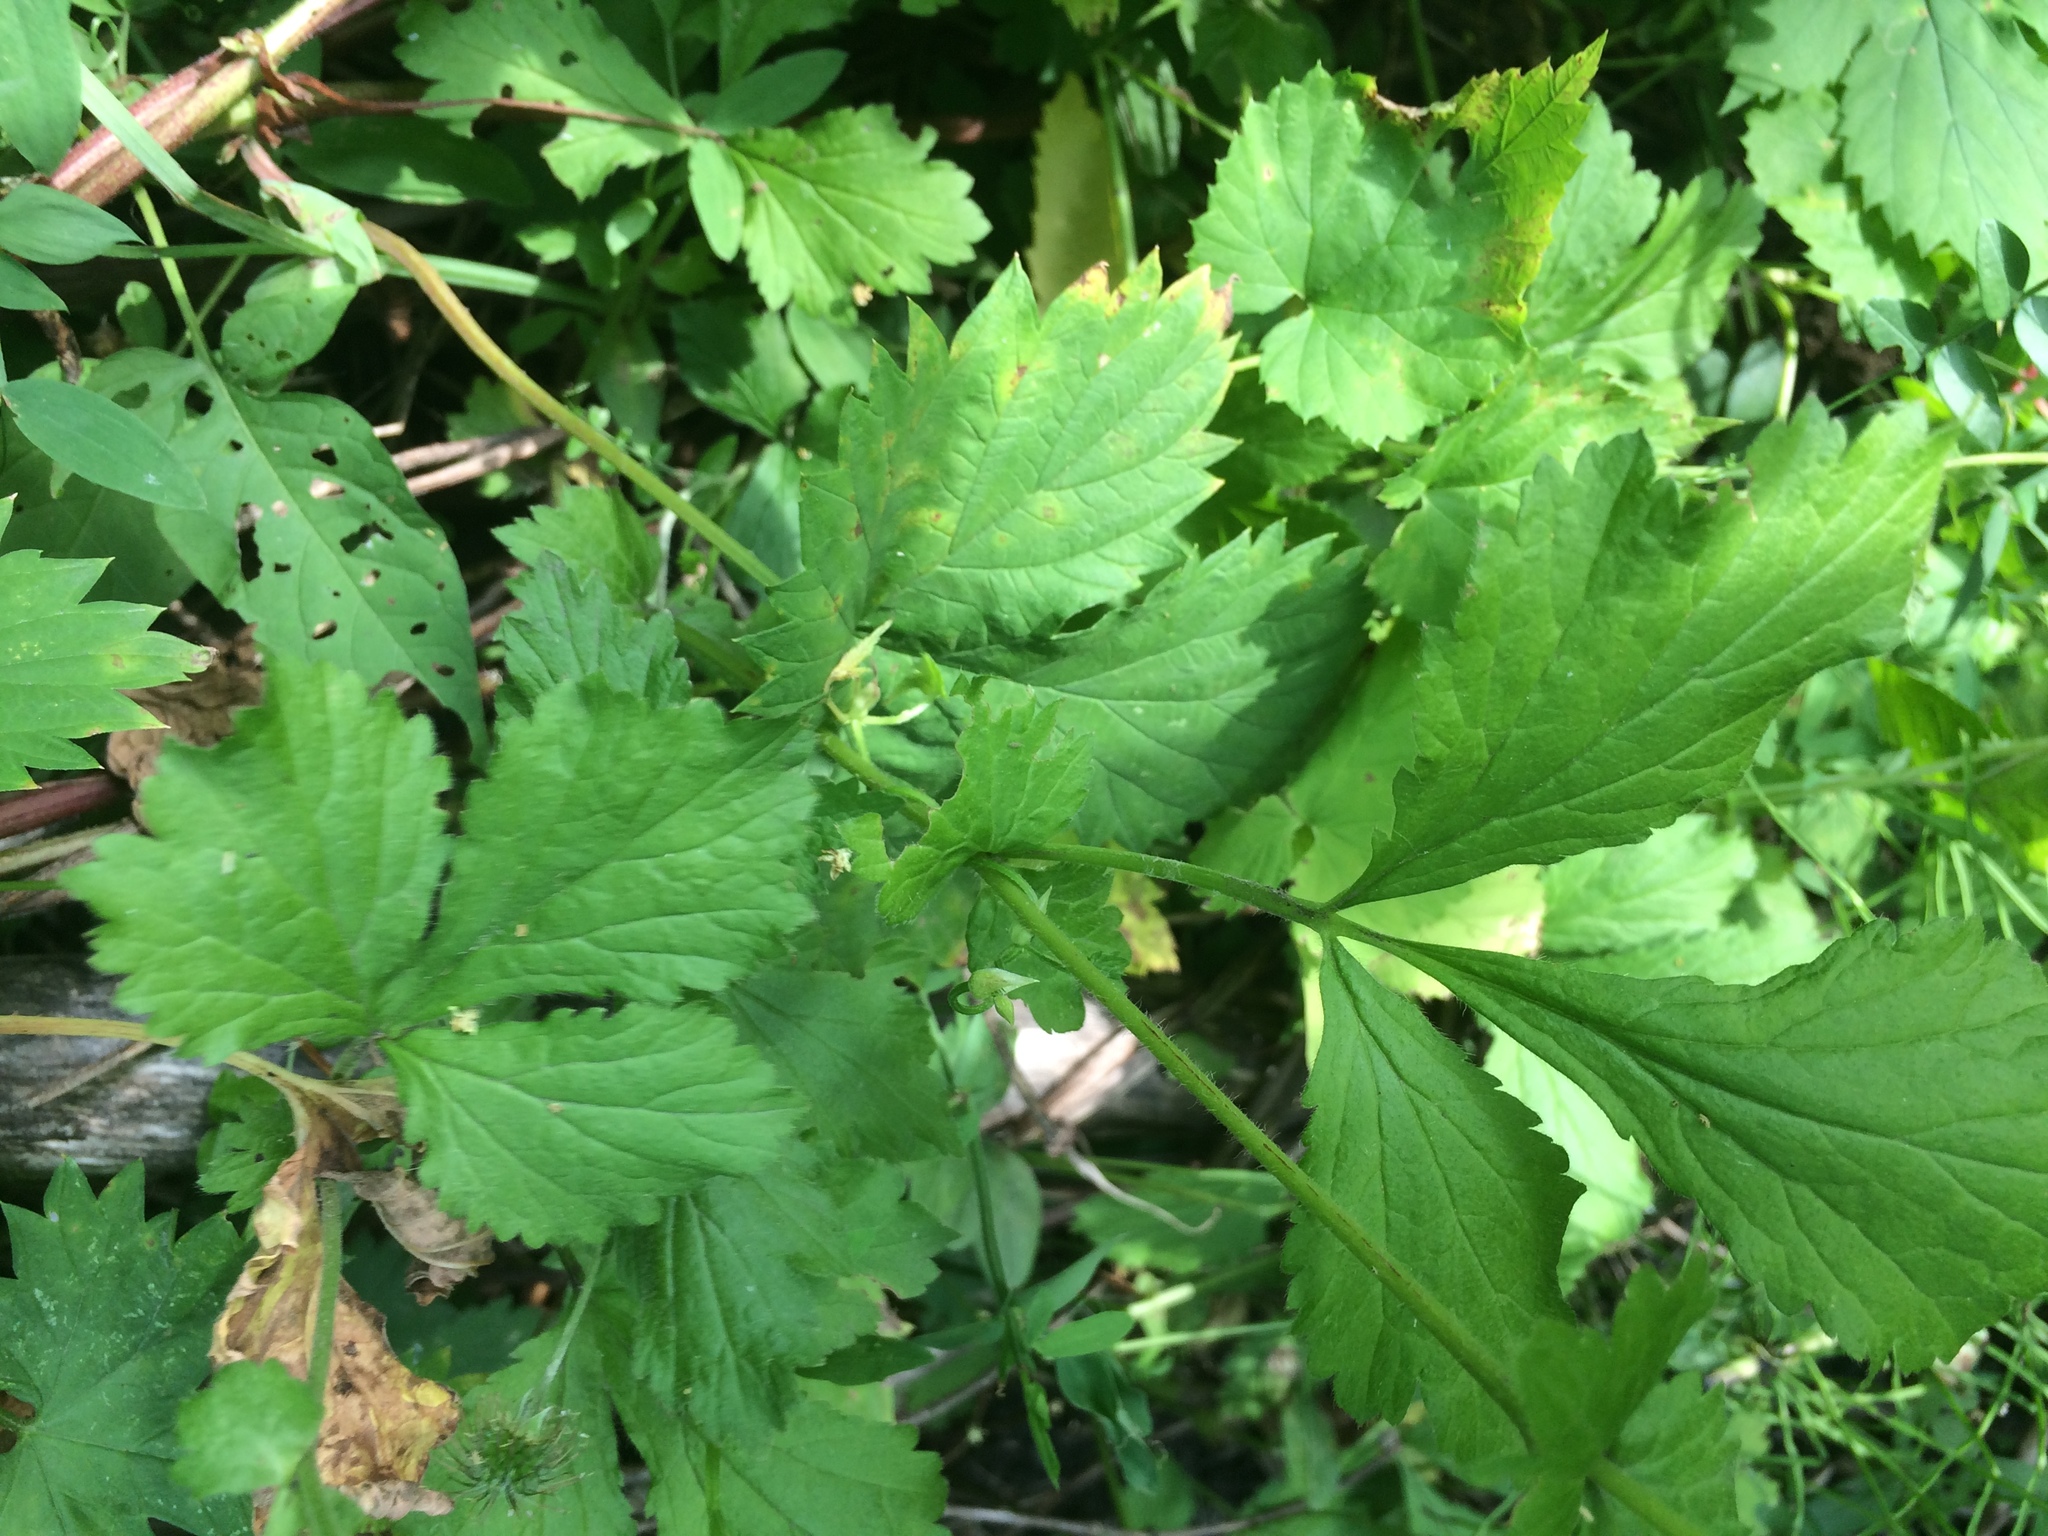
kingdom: Plantae
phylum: Tracheophyta
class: Magnoliopsida
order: Rosales
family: Rosaceae
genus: Geum
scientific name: Geum urbanum
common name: Wood avens
